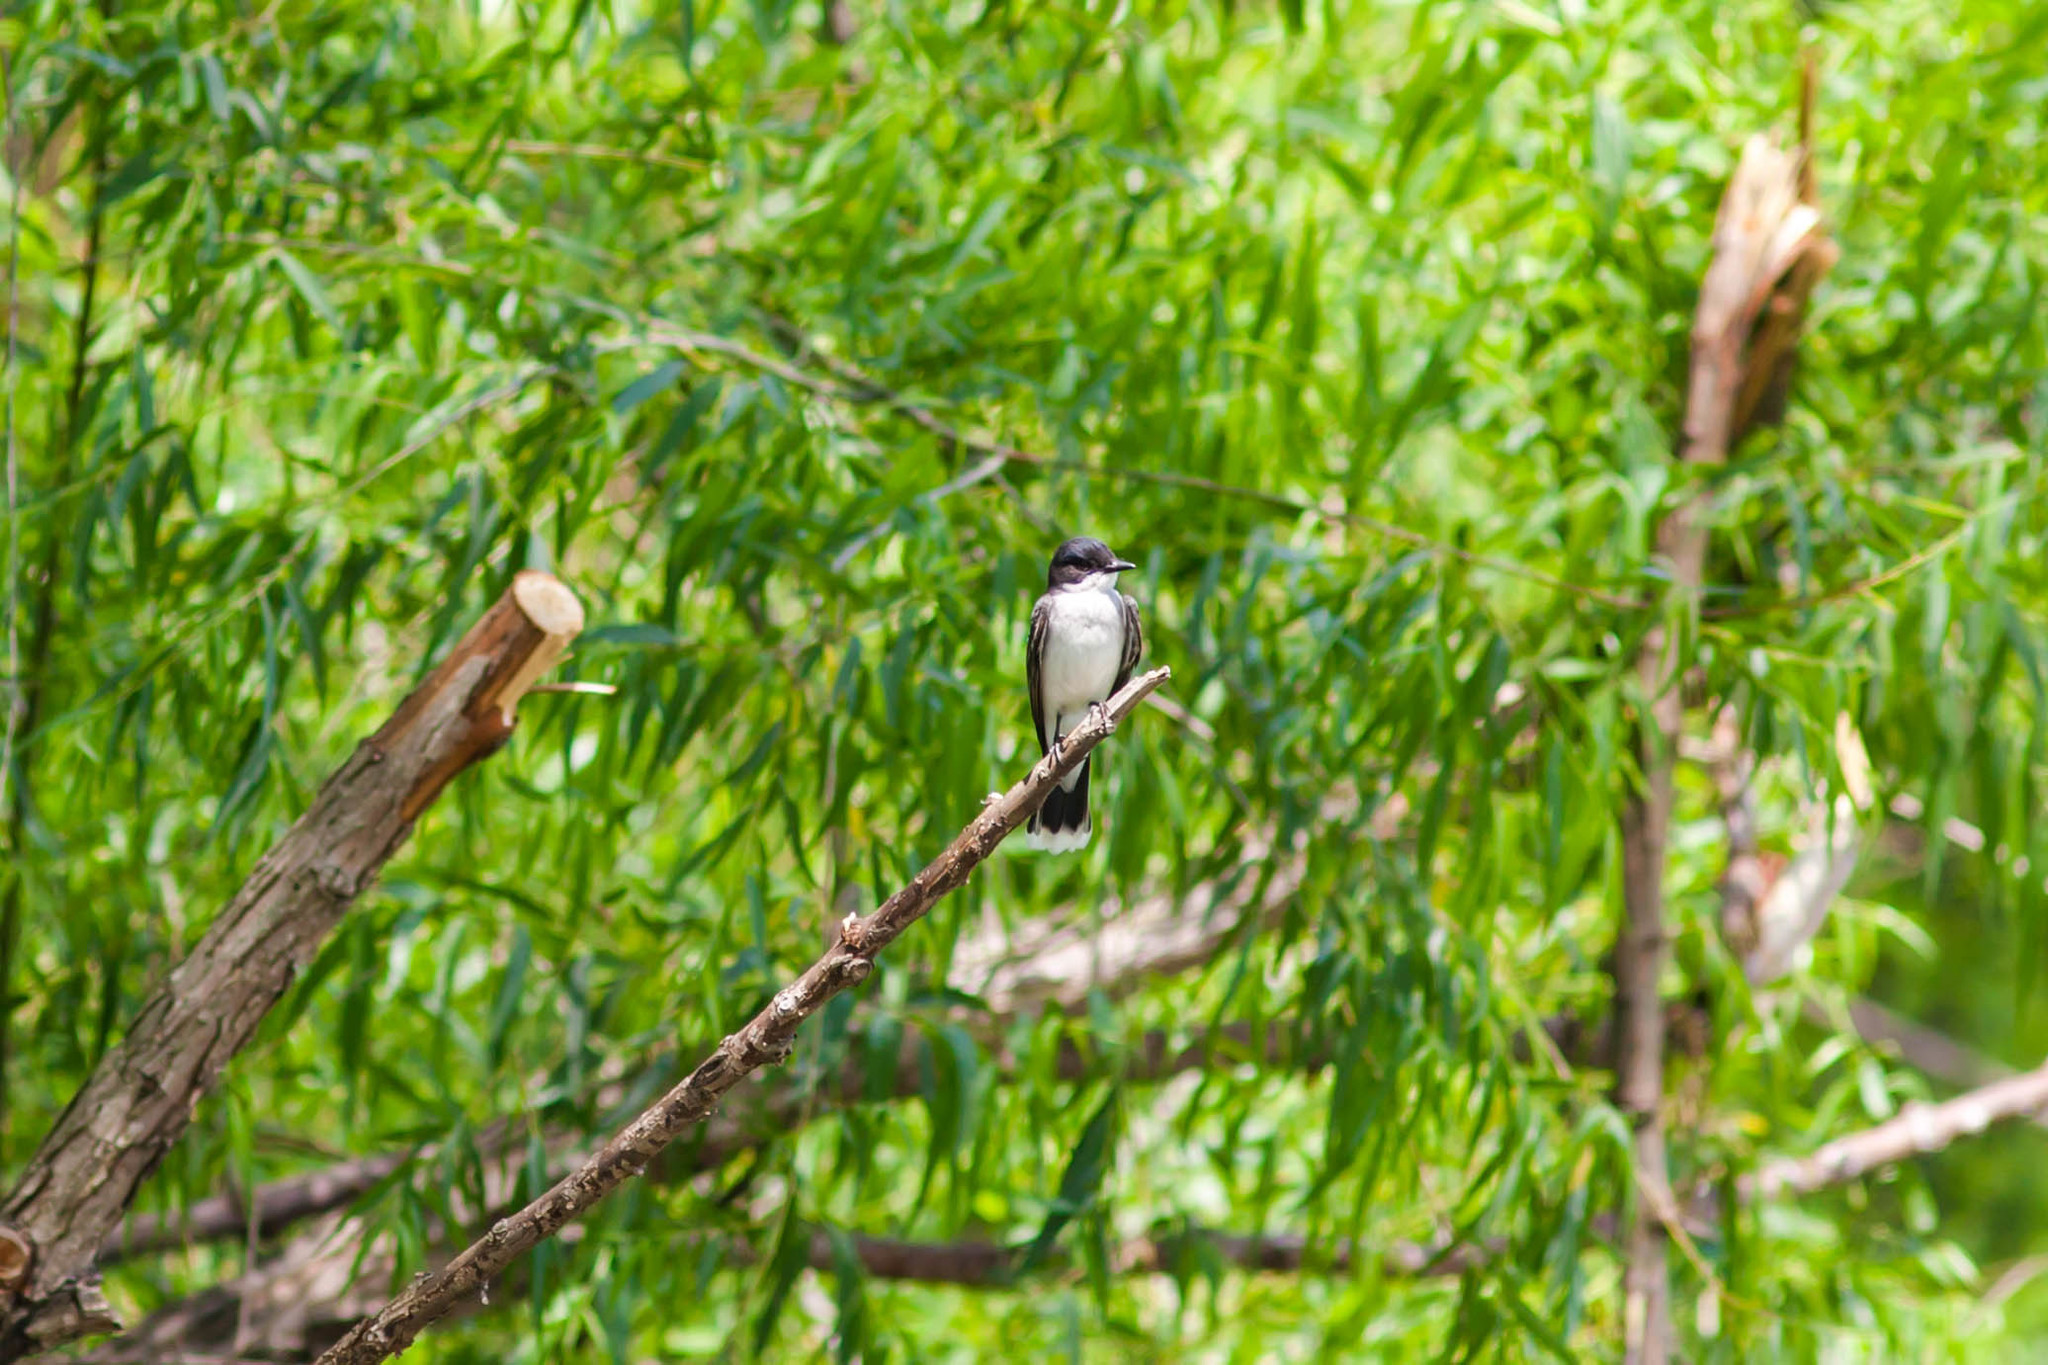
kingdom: Animalia
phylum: Chordata
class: Aves
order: Passeriformes
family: Tyrannidae
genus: Tyrannus
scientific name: Tyrannus tyrannus
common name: Eastern kingbird
